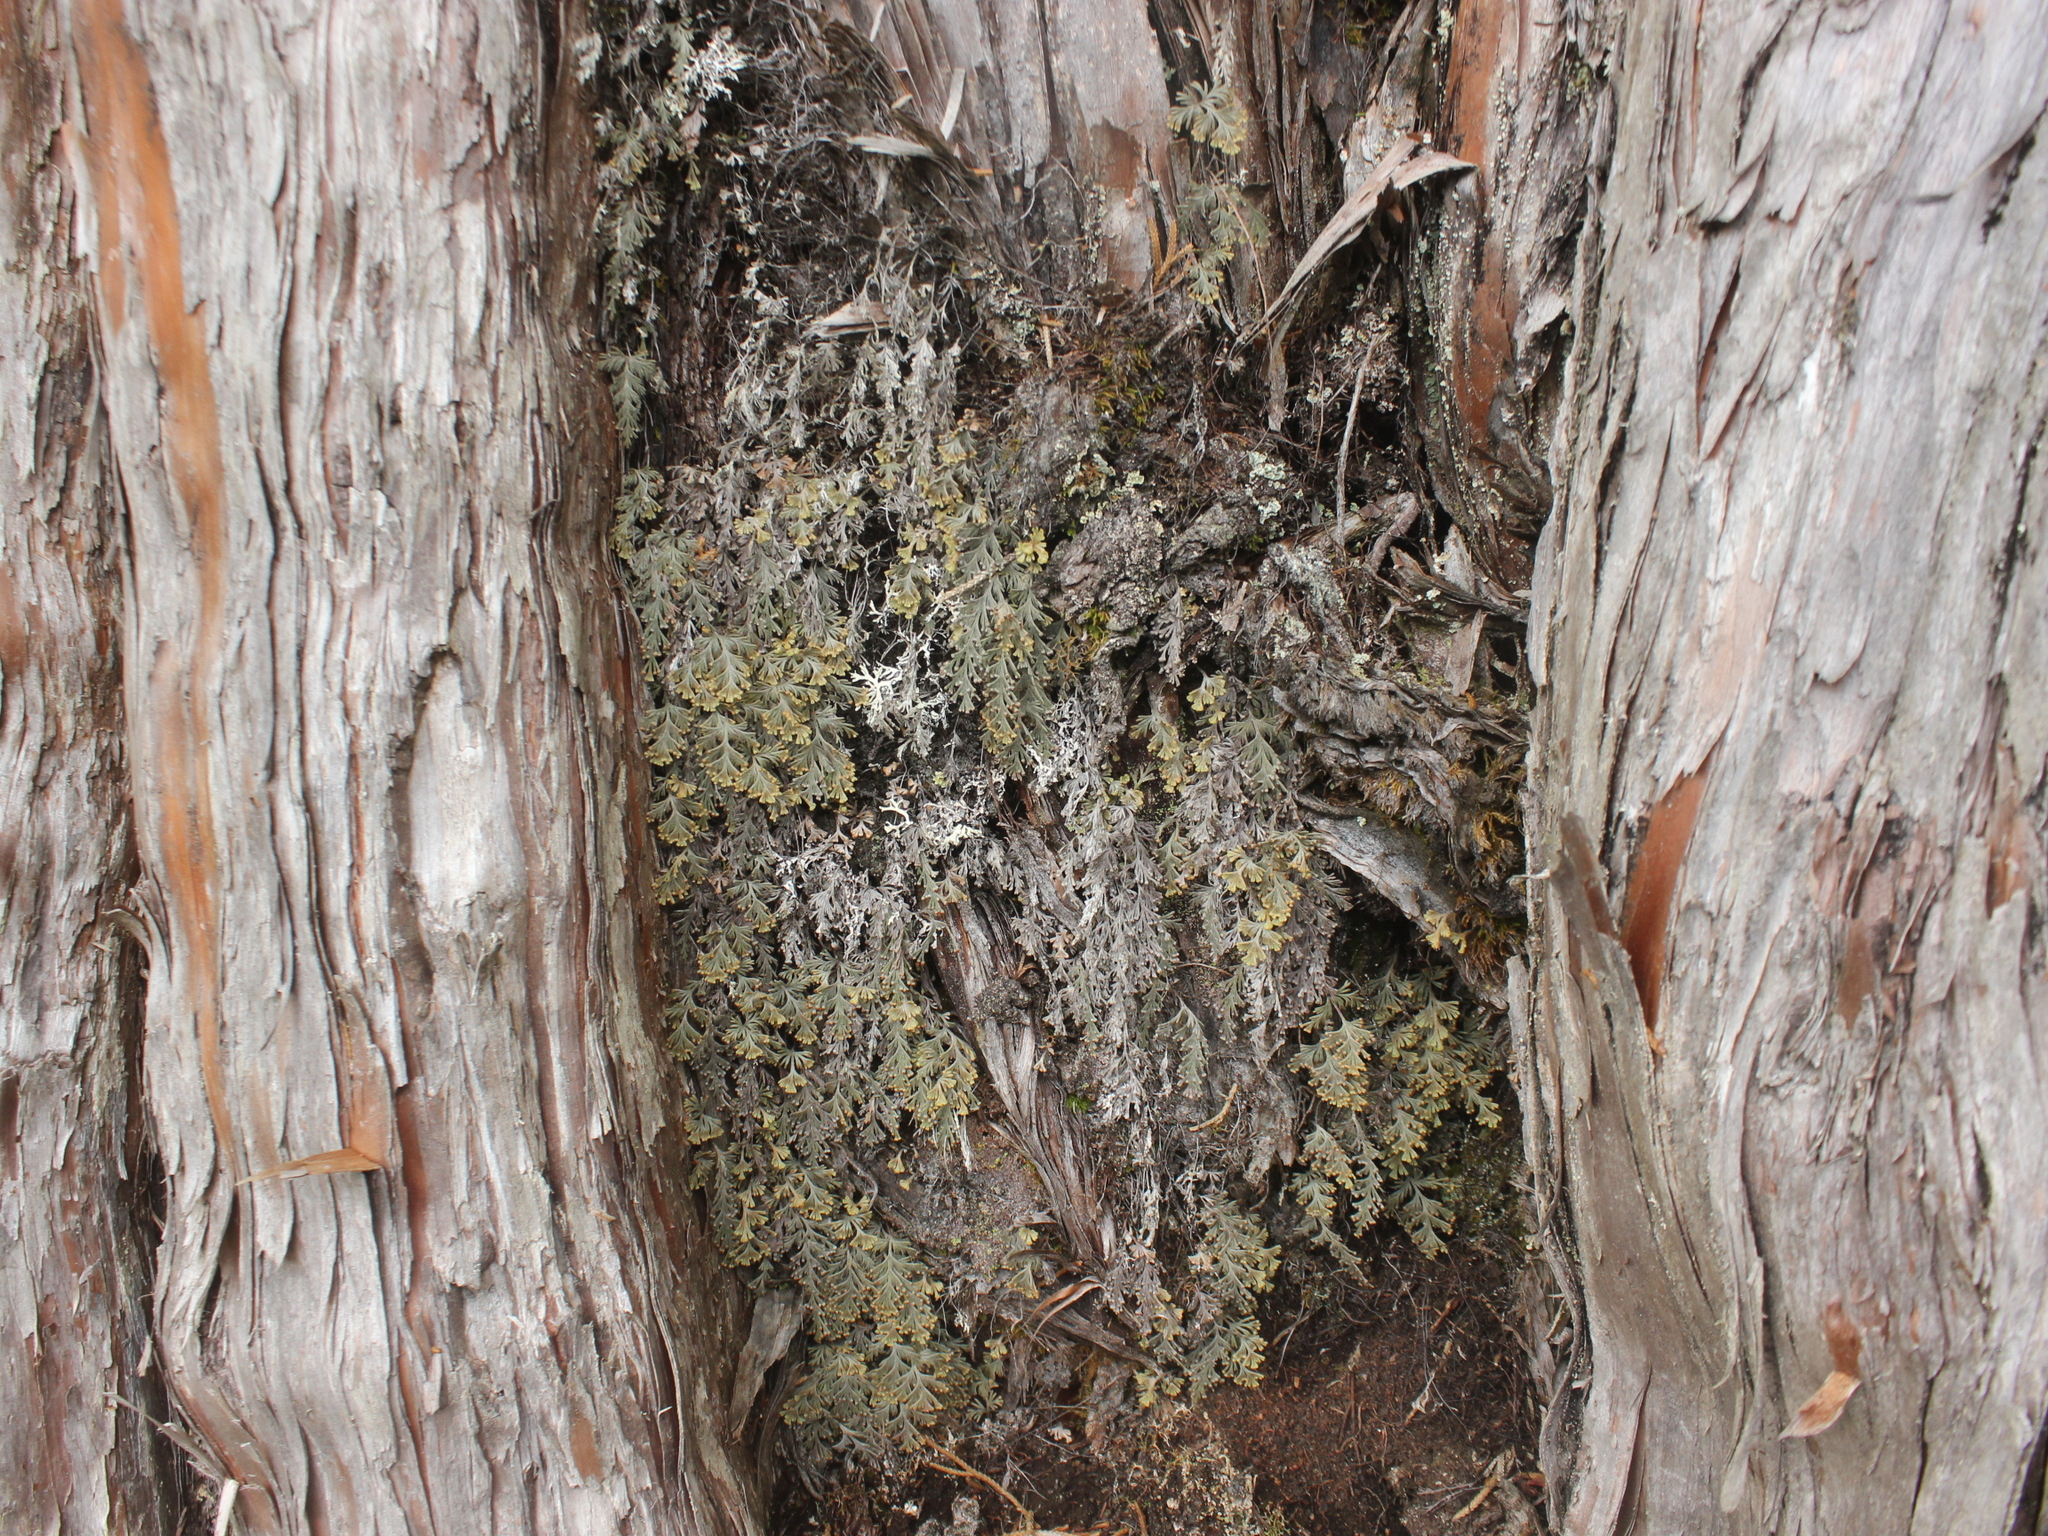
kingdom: Plantae
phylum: Tracheophyta
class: Polypodiopsida
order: Hymenophyllales
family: Hymenophyllaceae
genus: Hymenophyllum
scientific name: Hymenophyllum malingii
